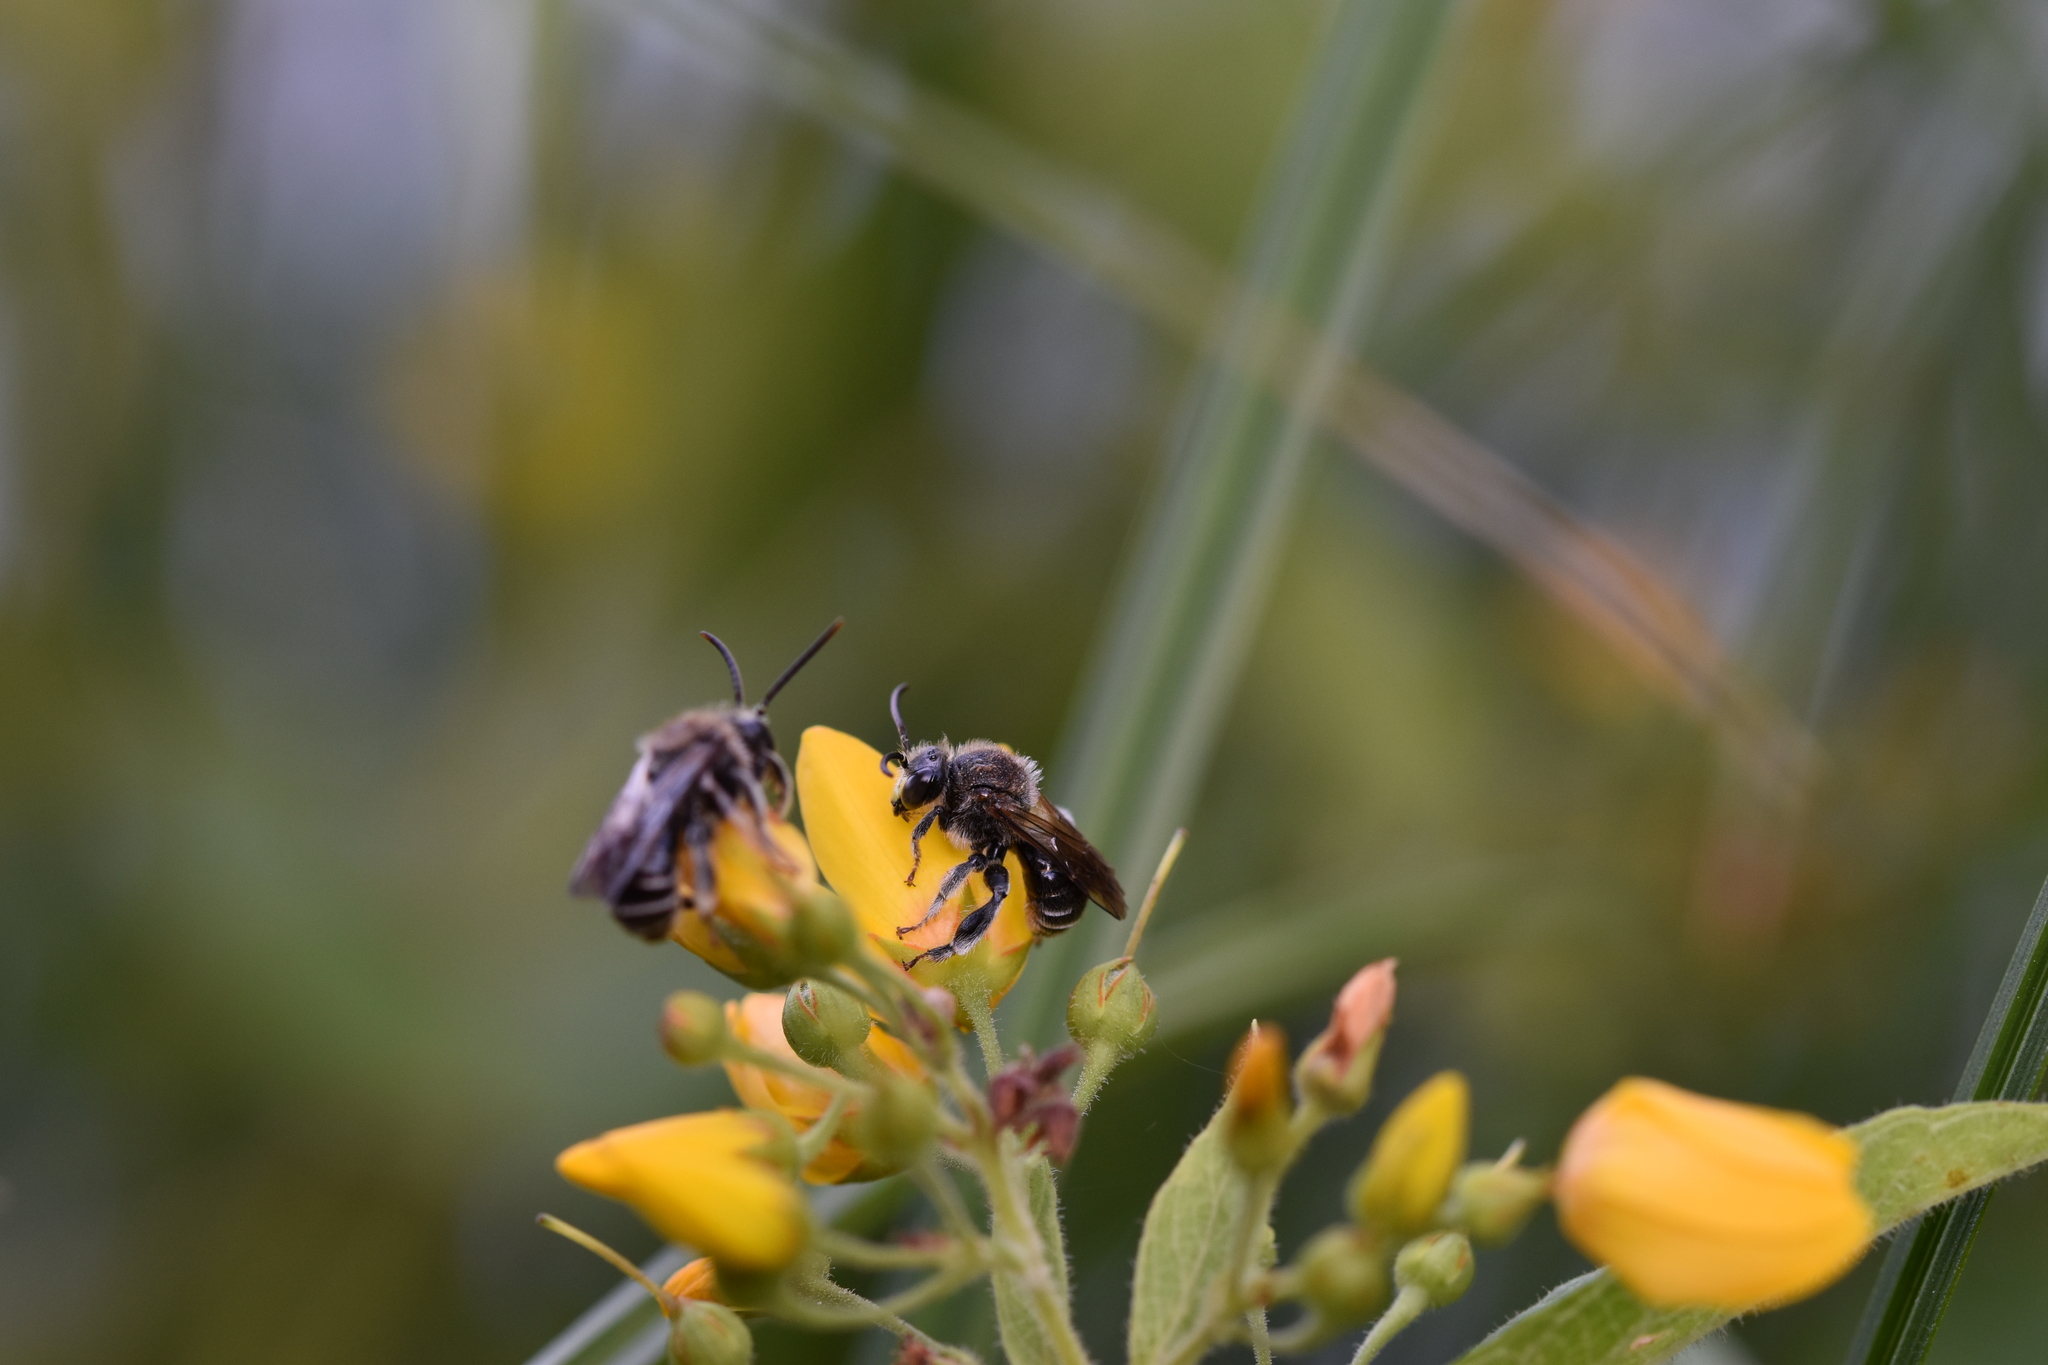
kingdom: Animalia
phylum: Arthropoda
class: Insecta
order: Hymenoptera
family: Melittidae
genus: Macropis
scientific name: Macropis europaea
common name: Yellow loosestrife bee
